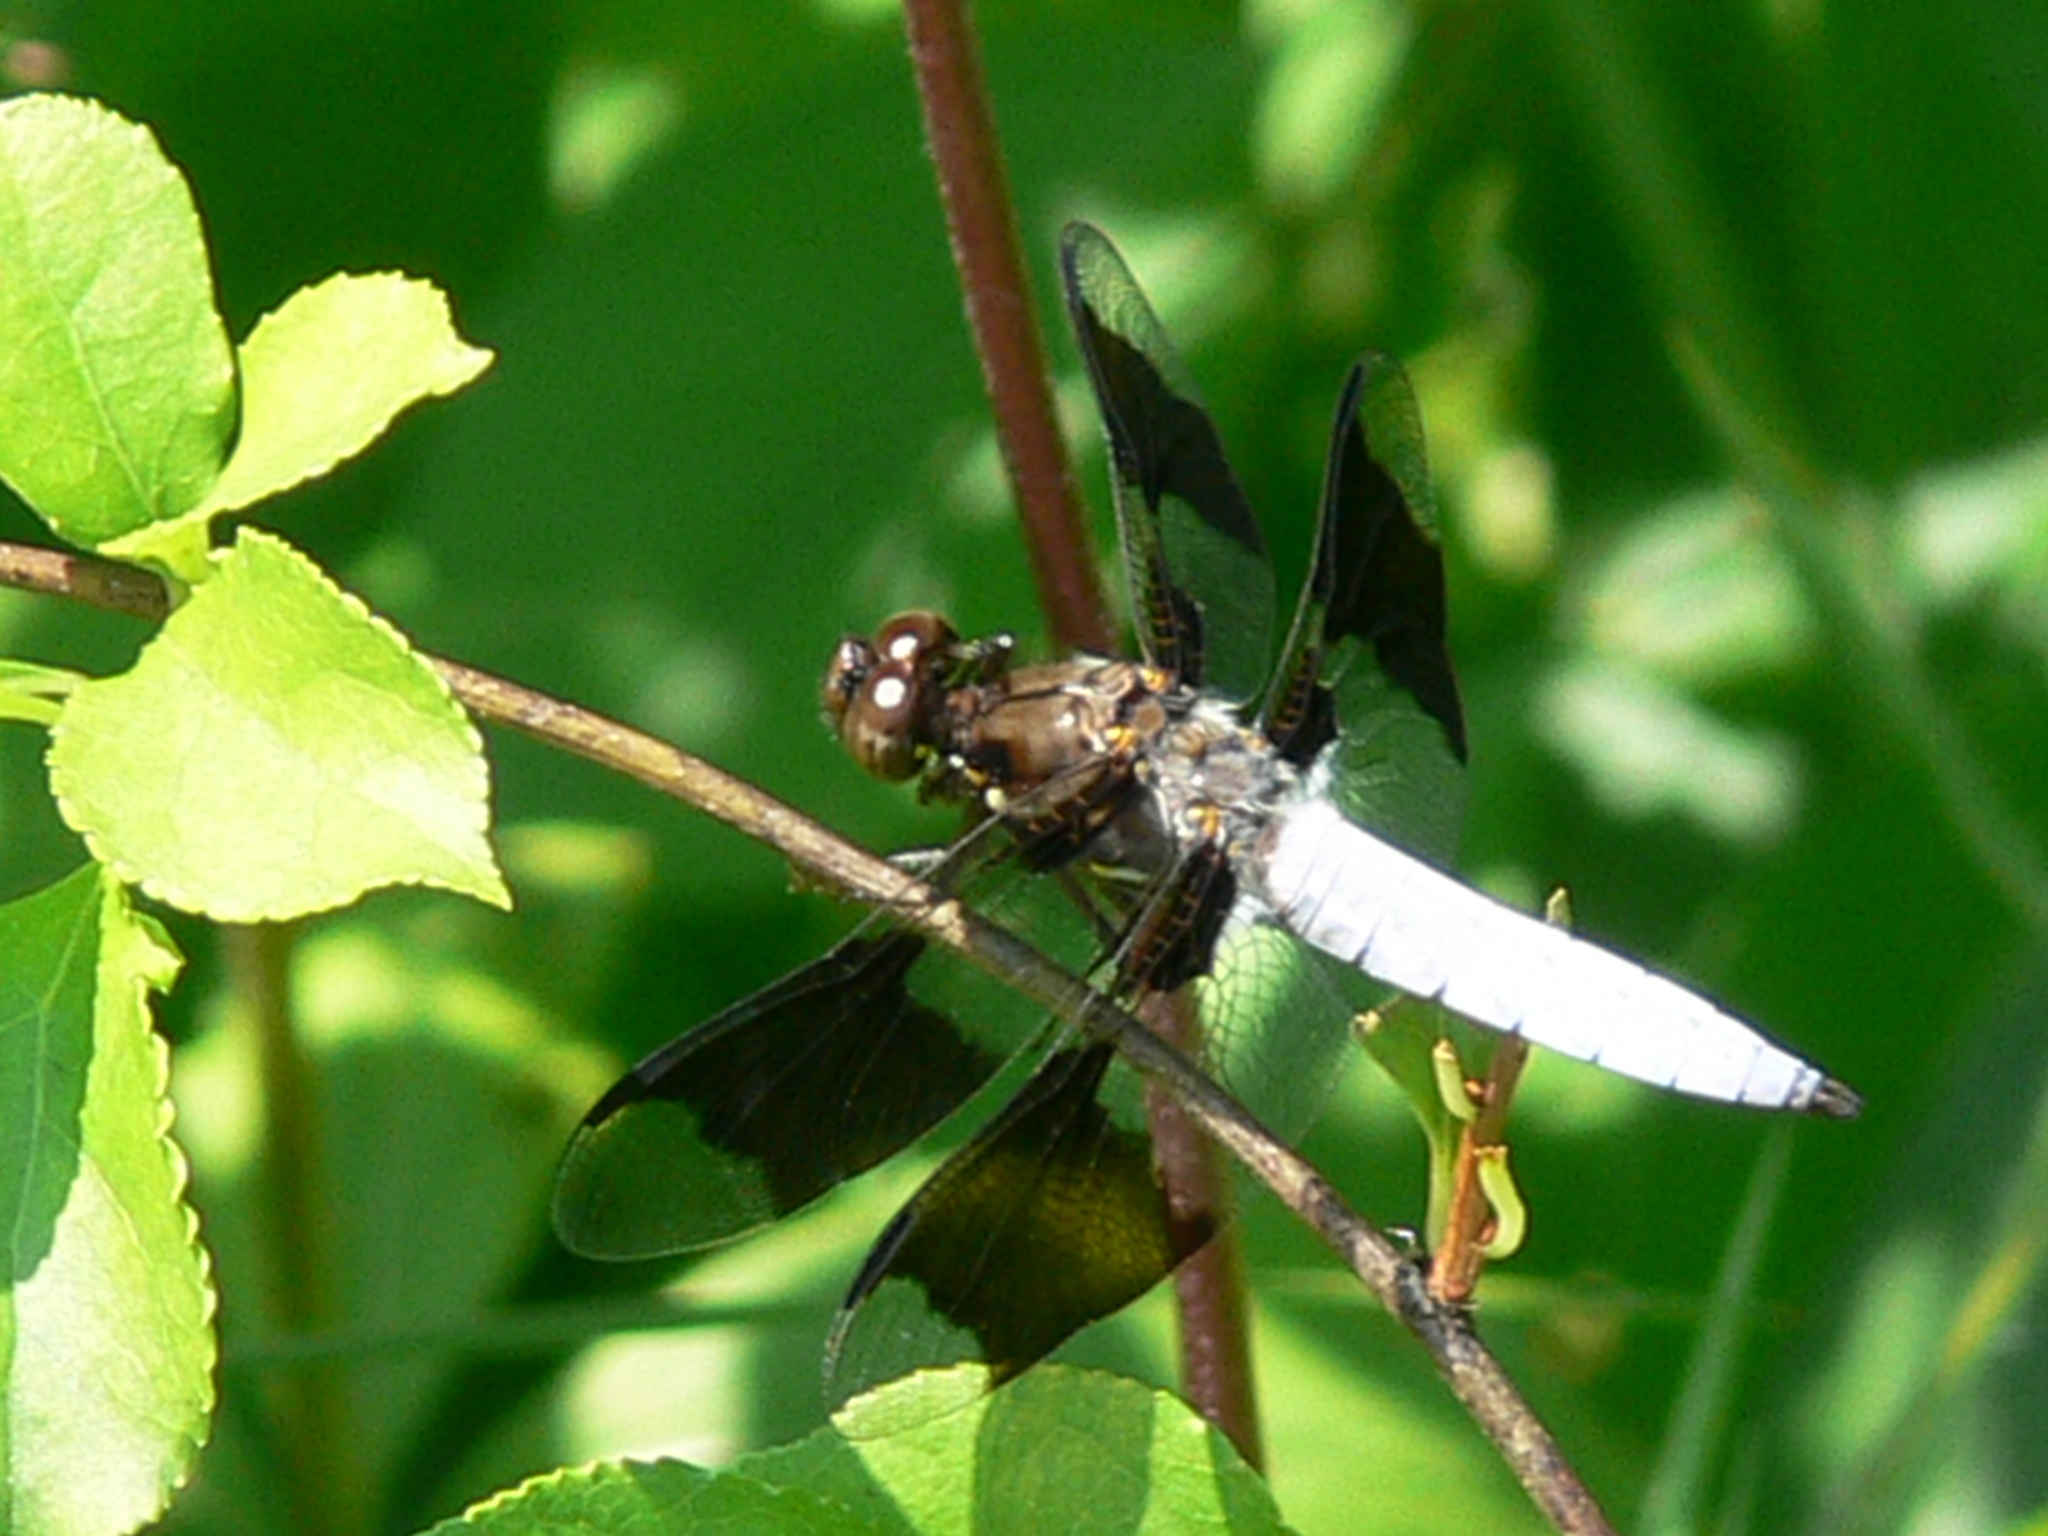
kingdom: Animalia
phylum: Arthropoda
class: Insecta
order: Odonata
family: Libellulidae
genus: Plathemis
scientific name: Plathemis lydia
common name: Common whitetail
